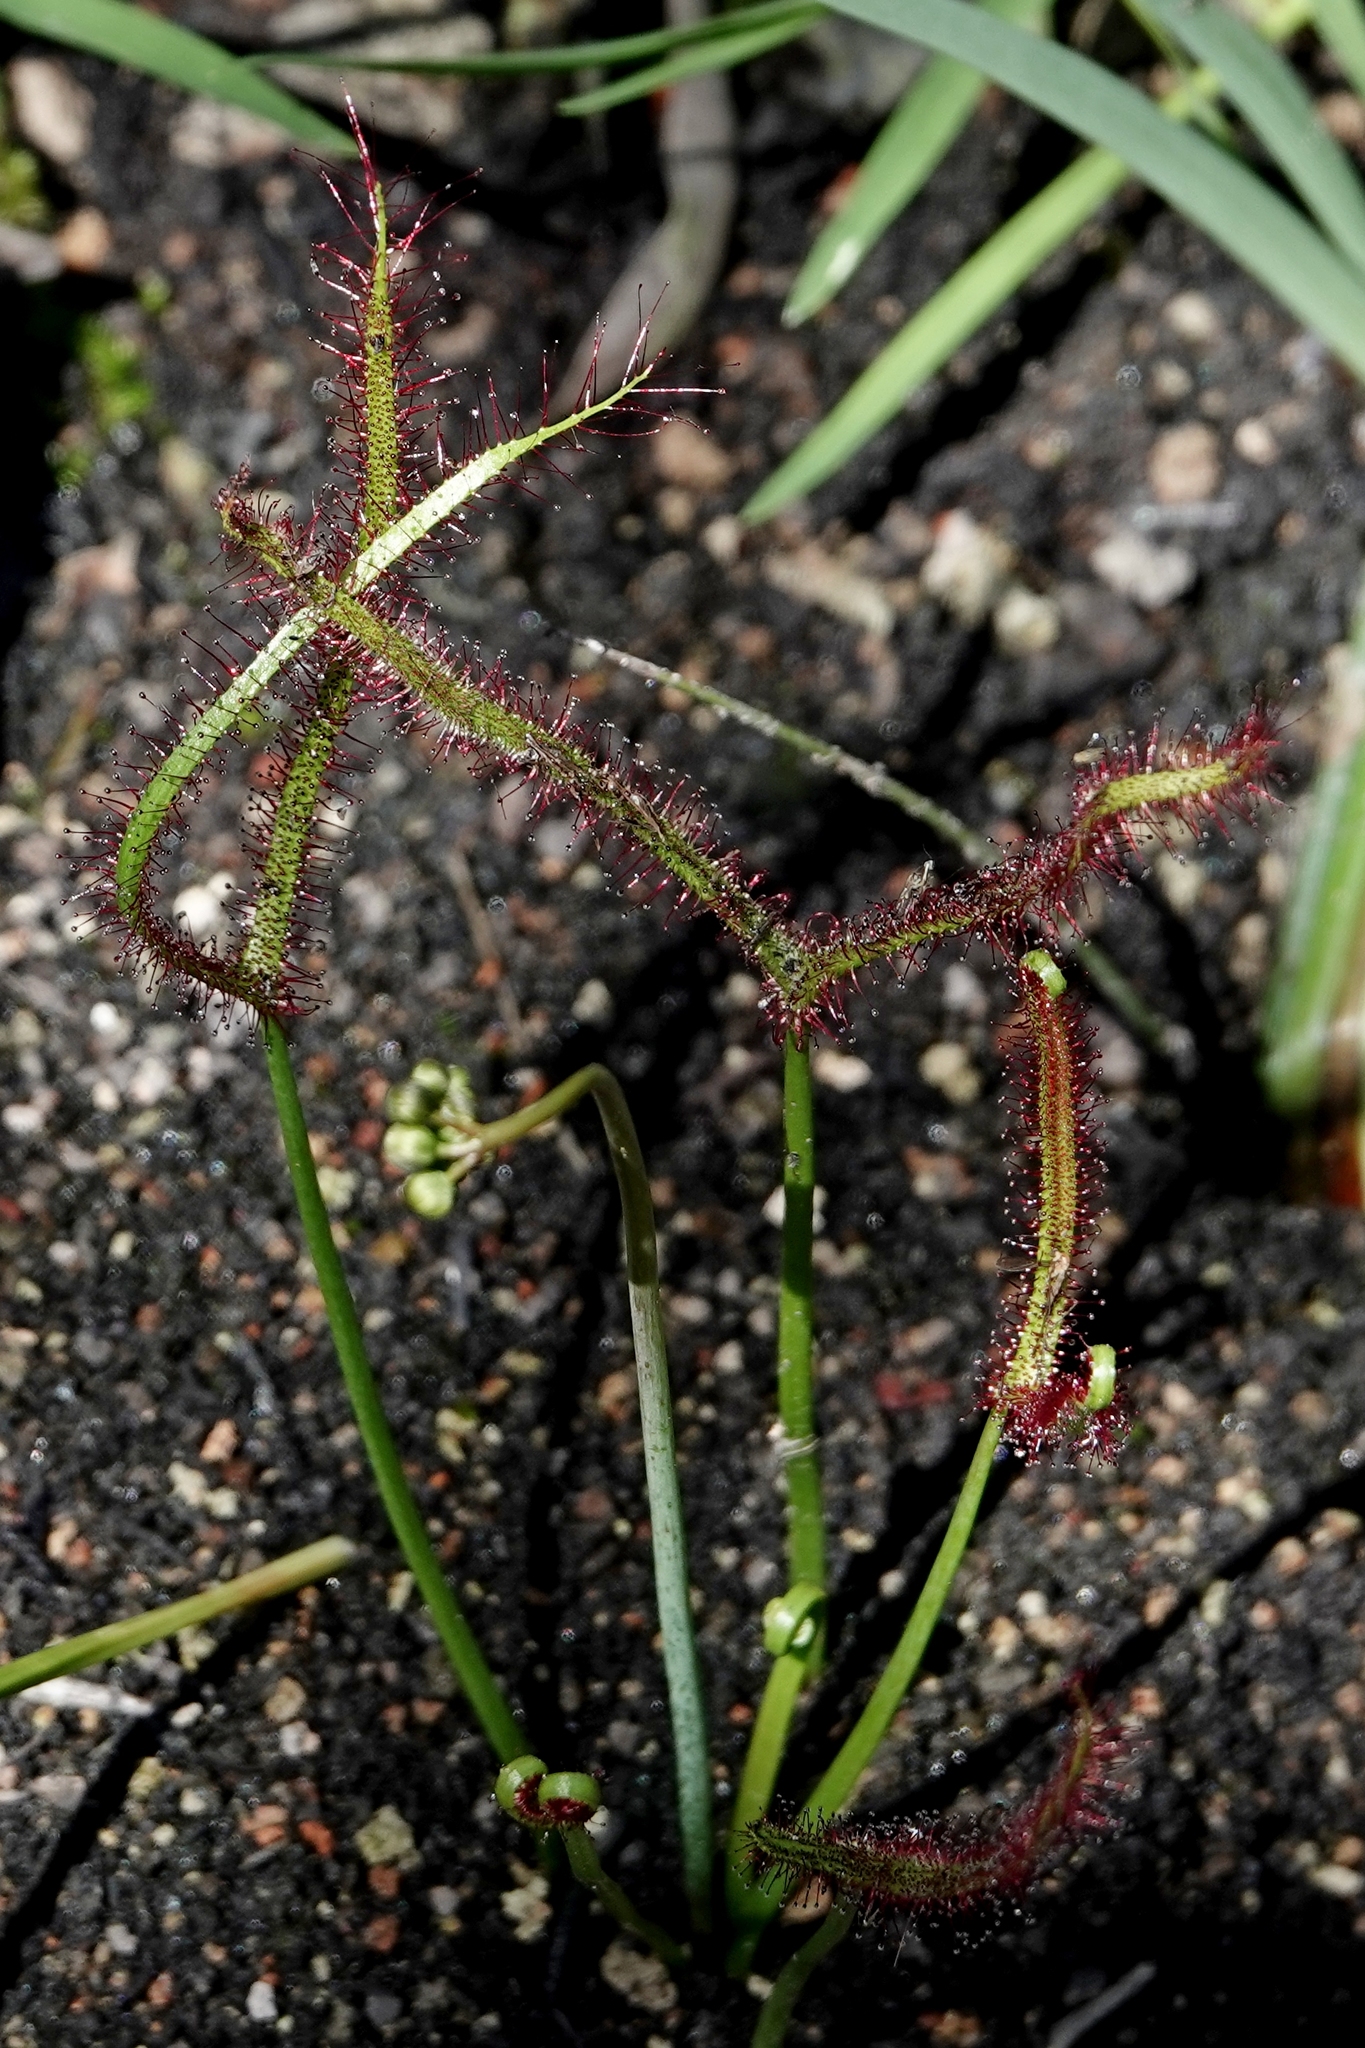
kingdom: Plantae
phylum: Tracheophyta
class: Magnoliopsida
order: Caryophyllales
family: Droseraceae
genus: Drosera
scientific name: Drosera binata
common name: Forked sundew
